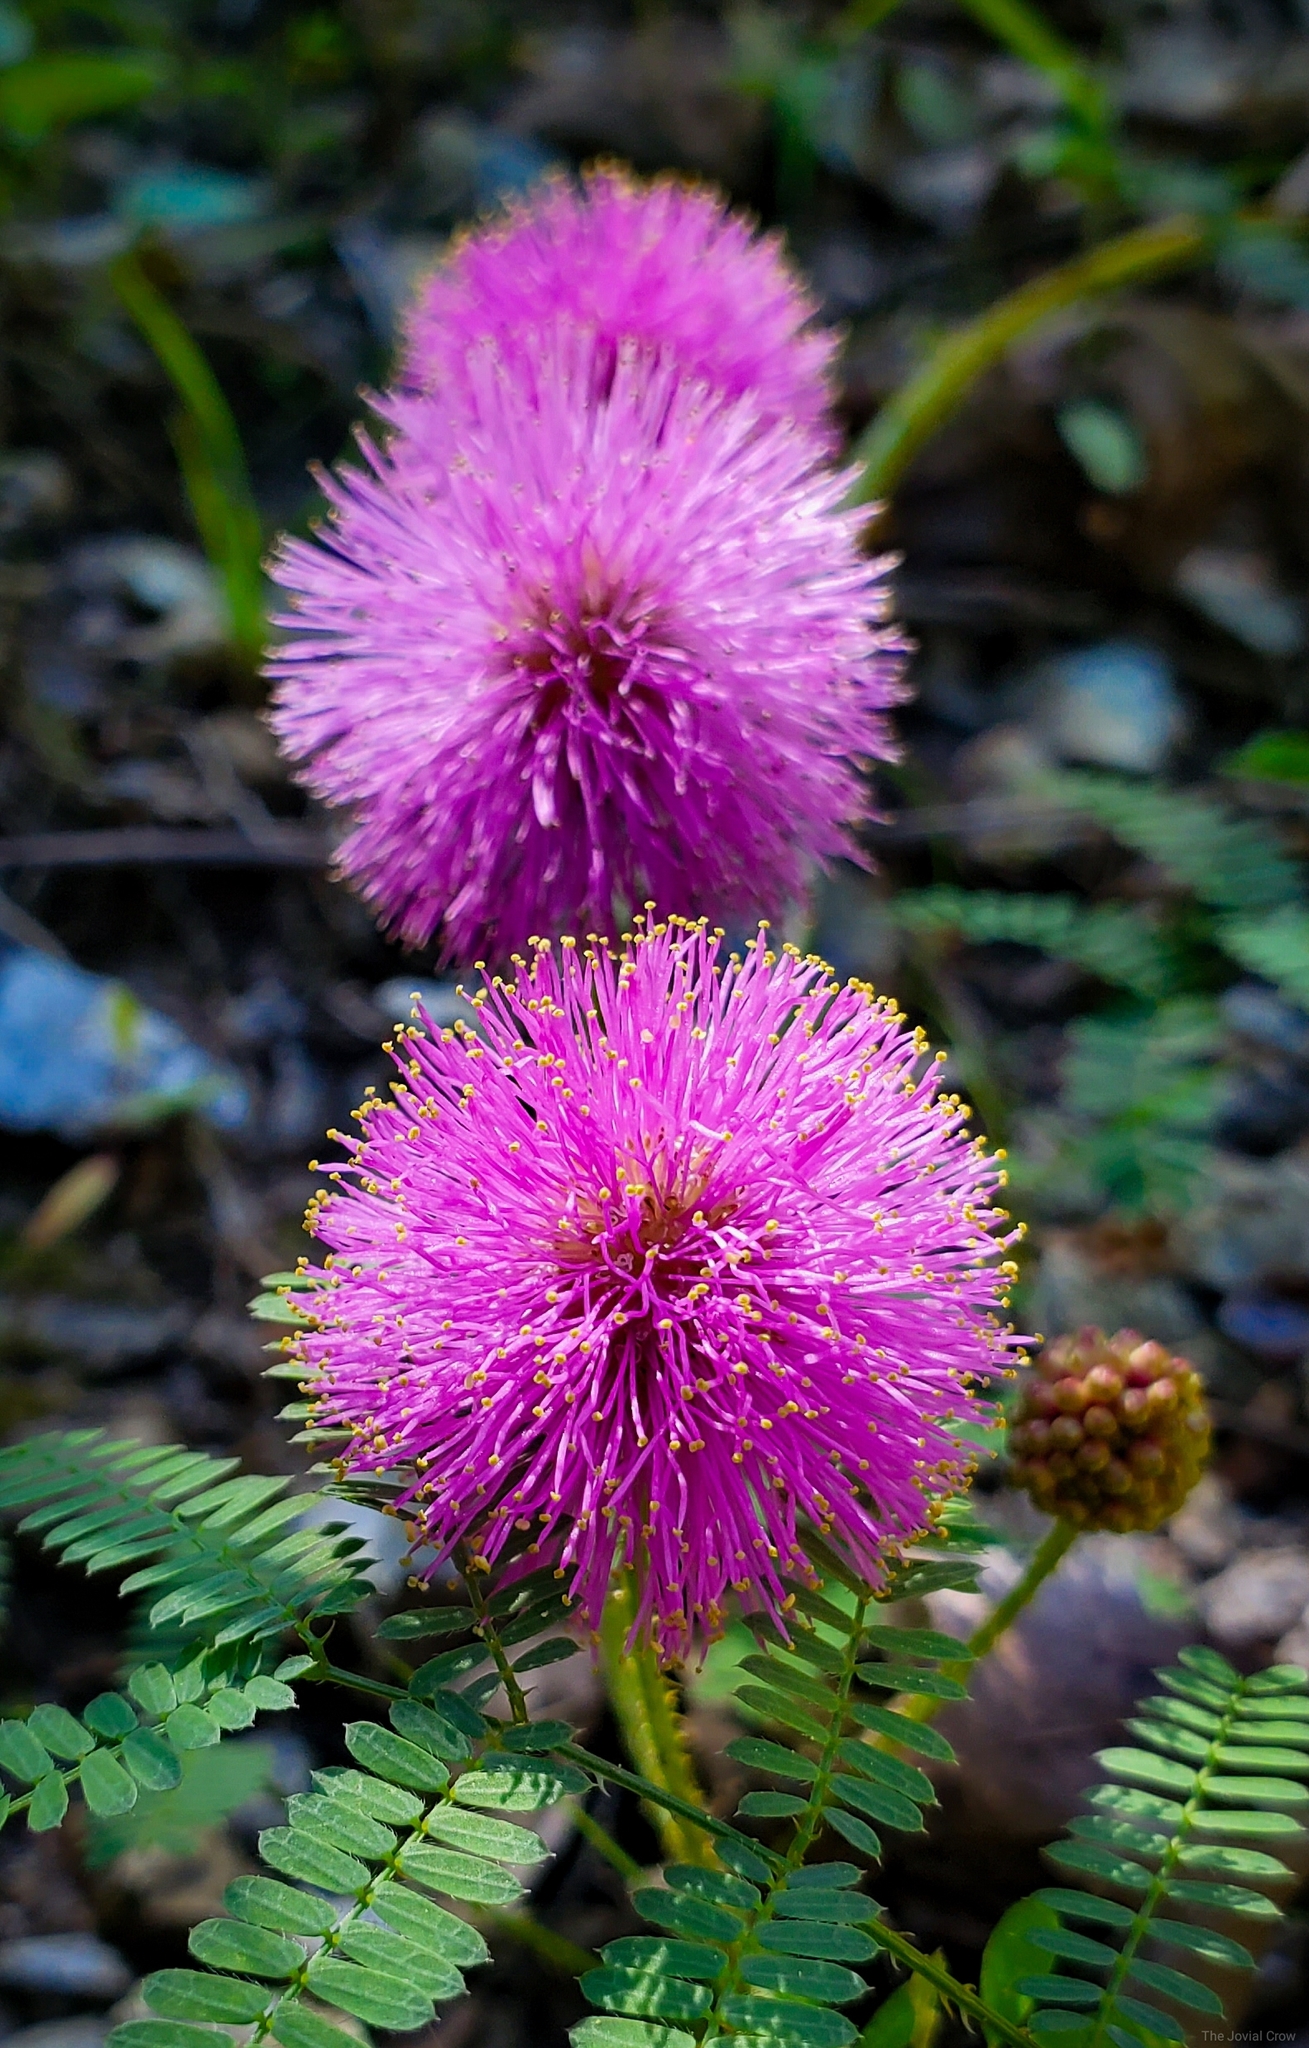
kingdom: Plantae
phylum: Tracheophyta
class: Magnoliopsida
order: Fabales
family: Fabaceae
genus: Mimosa
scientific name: Mimosa quadrivalvis
